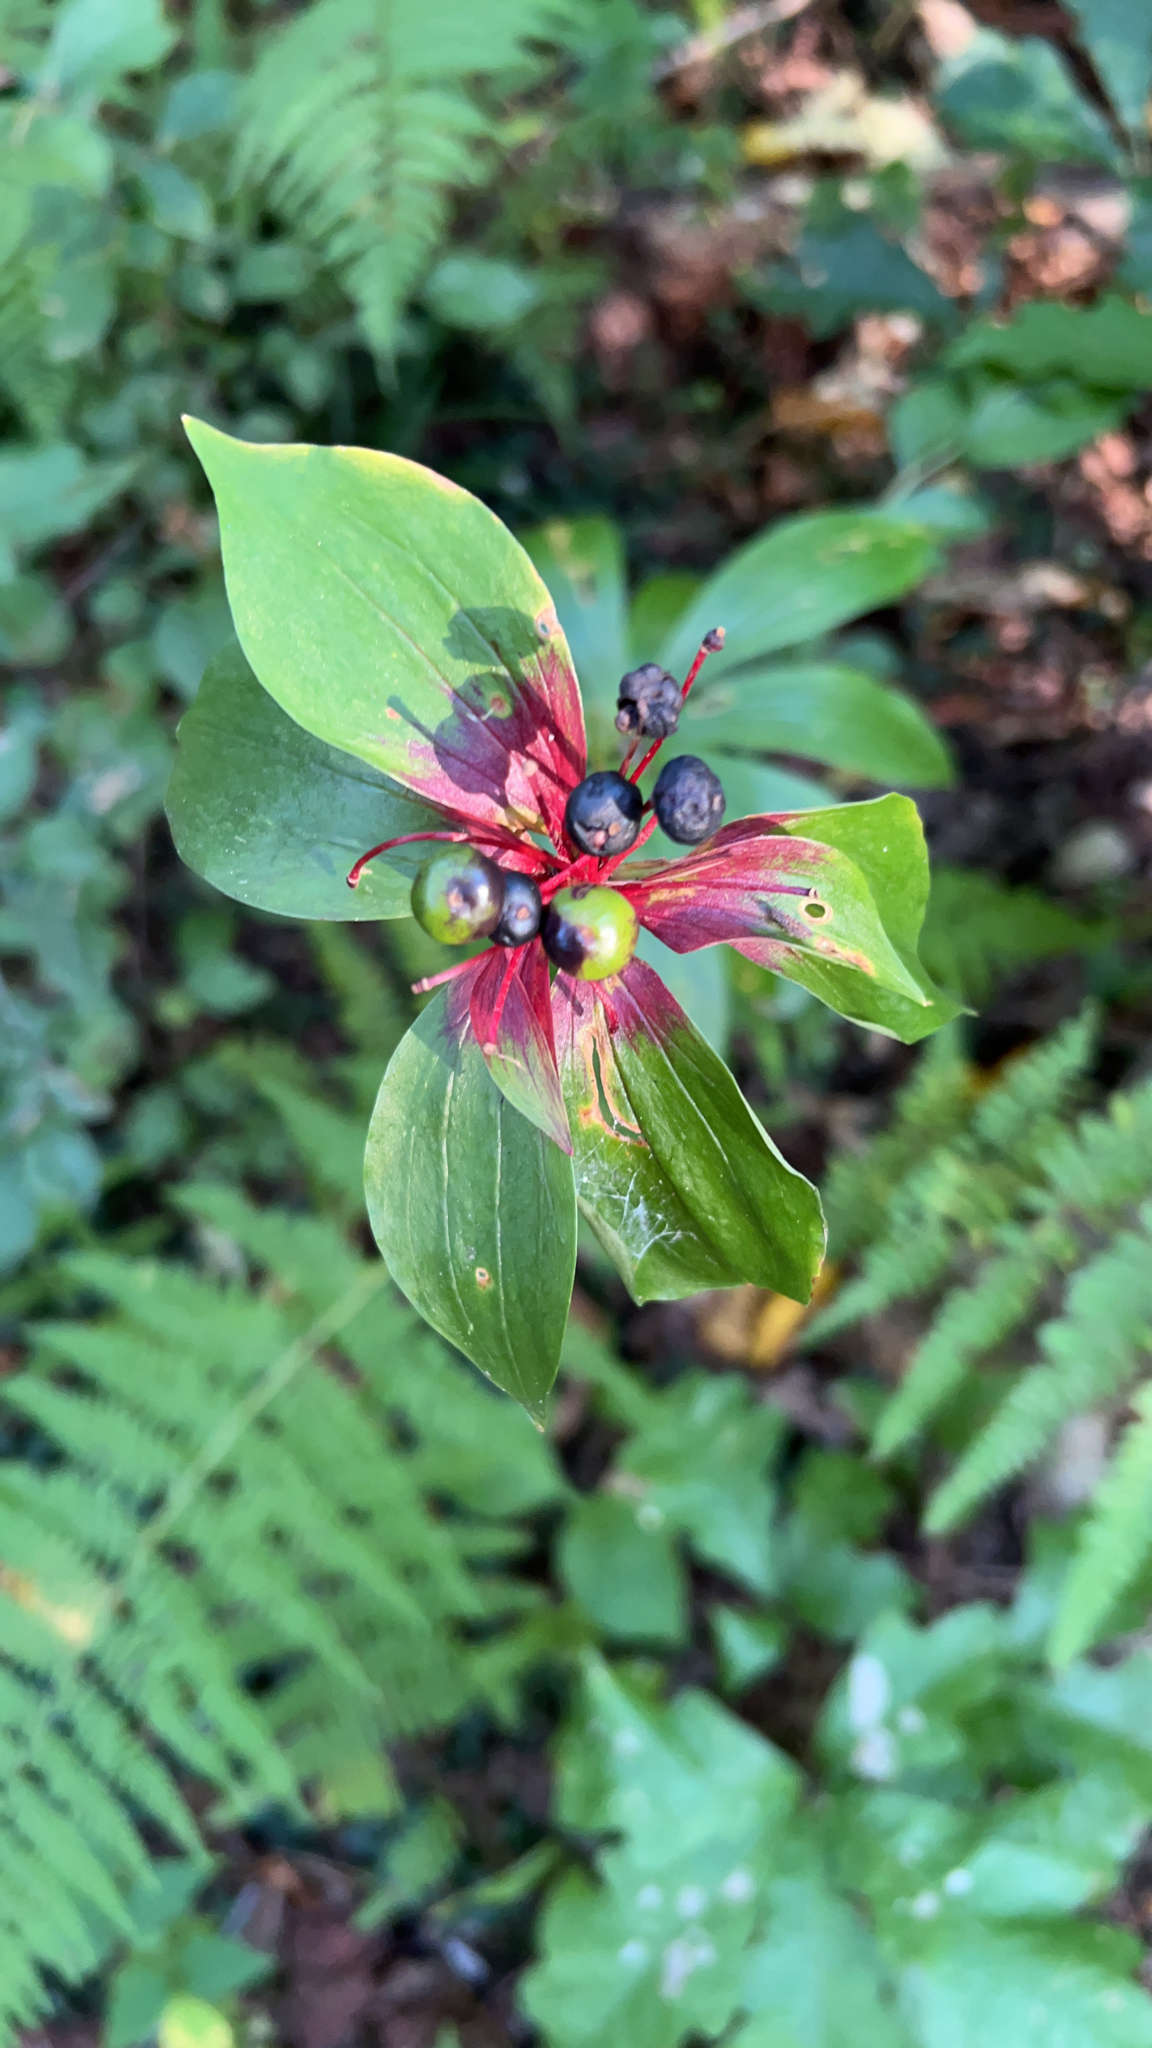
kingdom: Plantae
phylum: Tracheophyta
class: Liliopsida
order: Liliales
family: Liliaceae
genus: Medeola
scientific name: Medeola virginiana
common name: Indian cucumber-root
